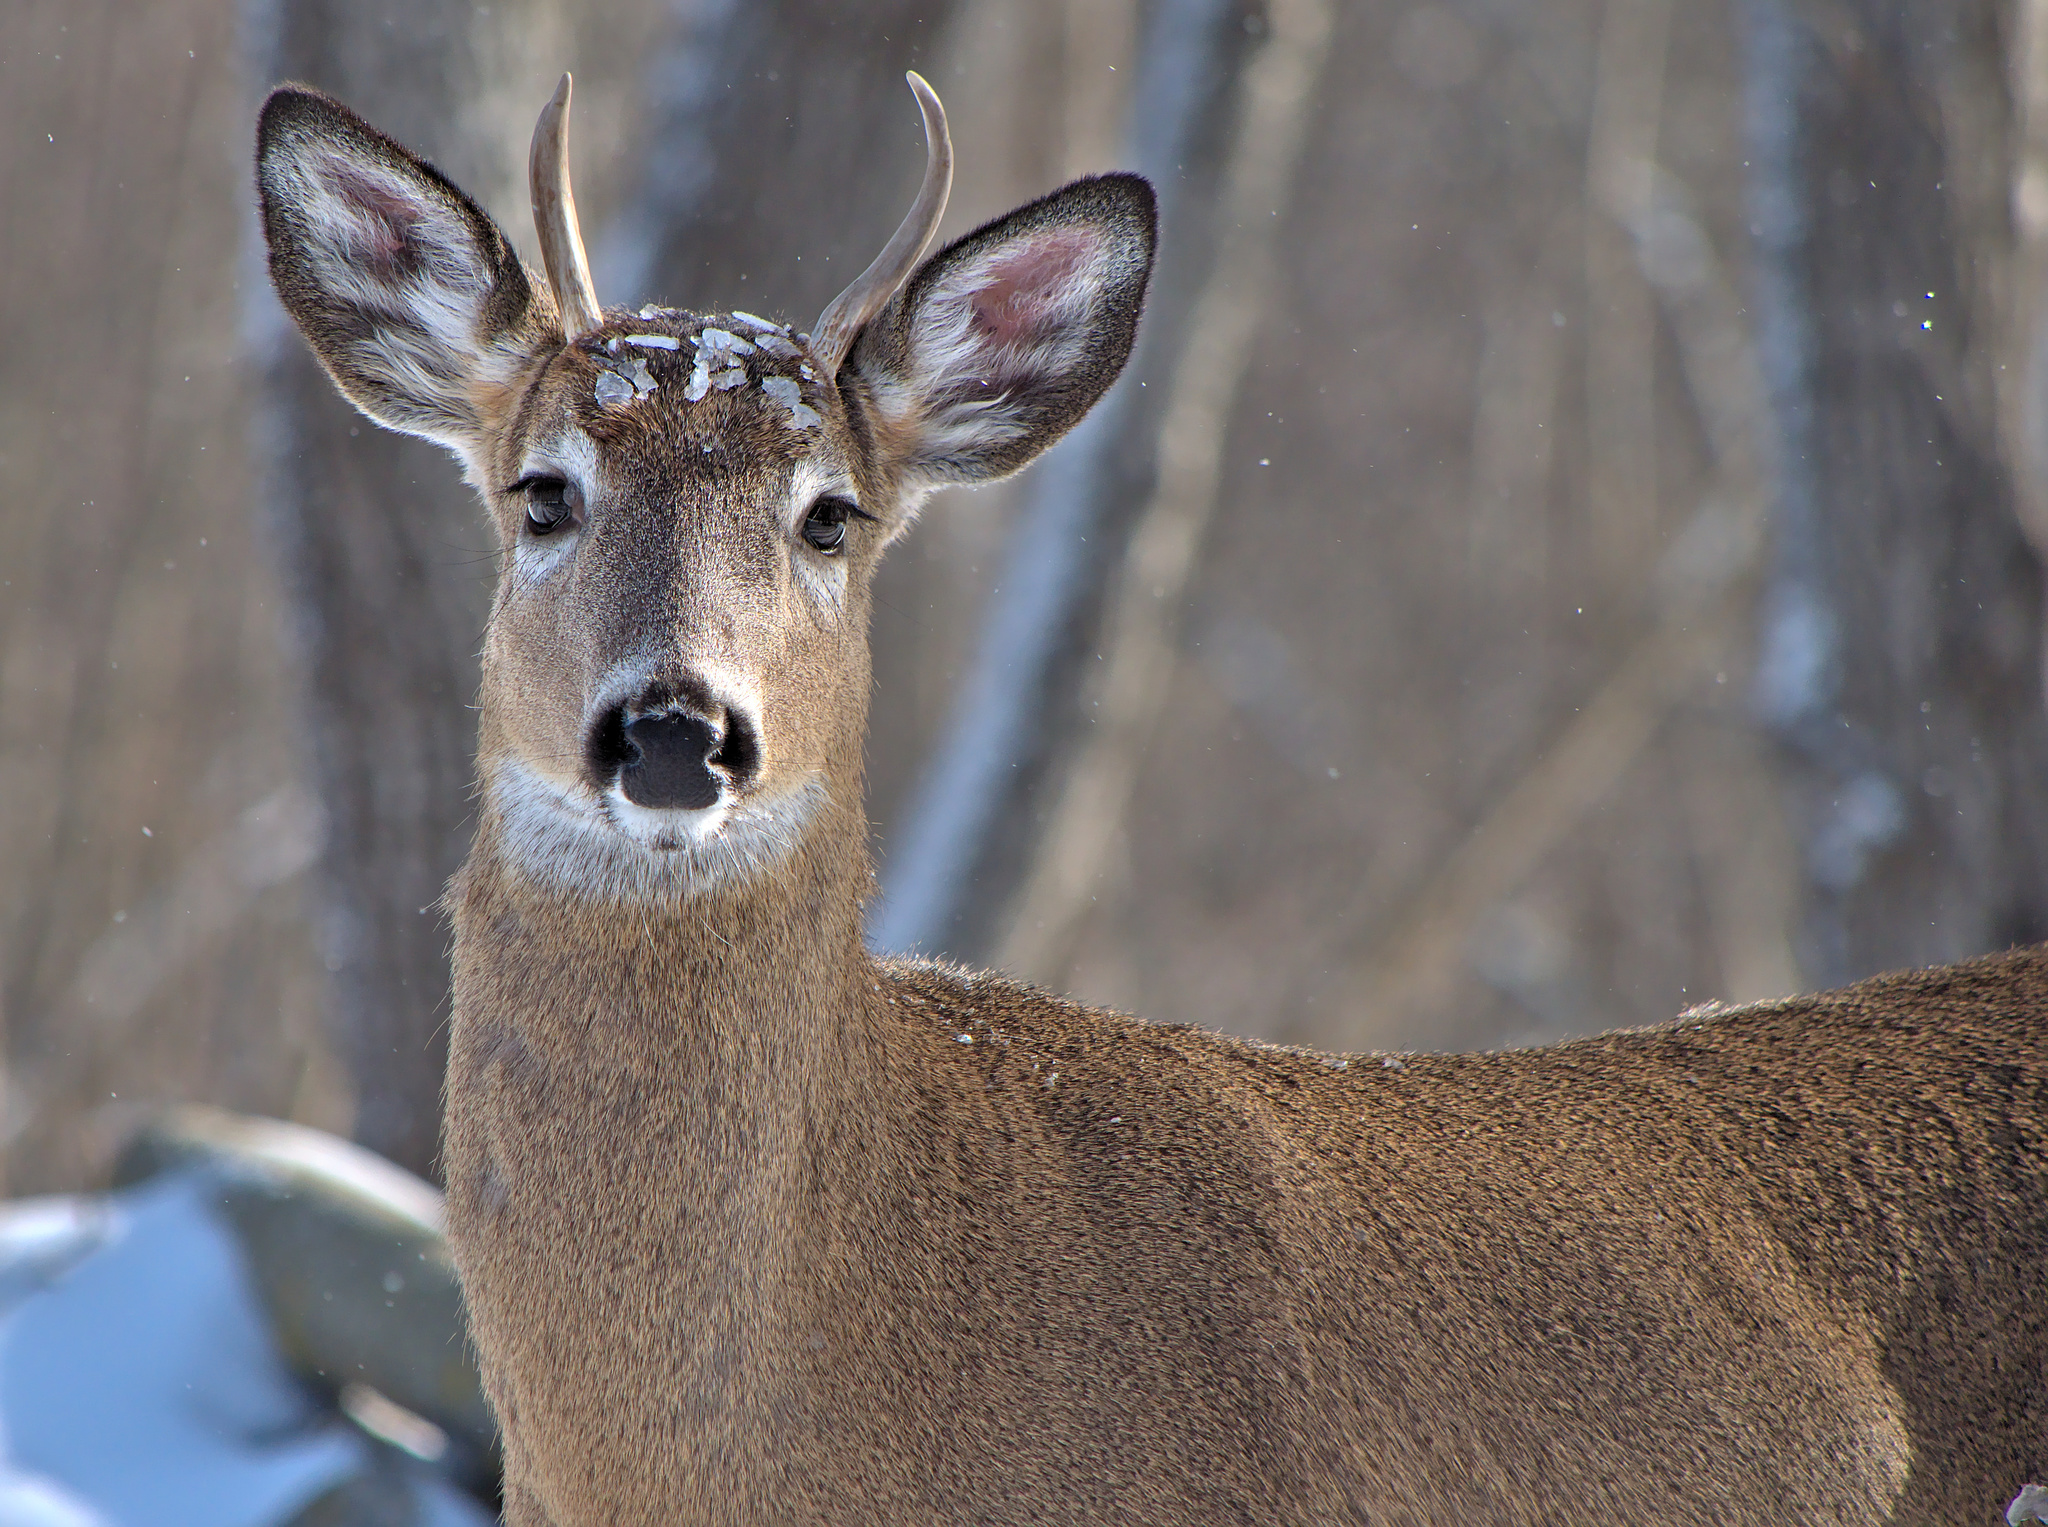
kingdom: Animalia
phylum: Chordata
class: Mammalia
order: Artiodactyla
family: Cervidae
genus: Odocoileus
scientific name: Odocoileus virginianus
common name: White-tailed deer
